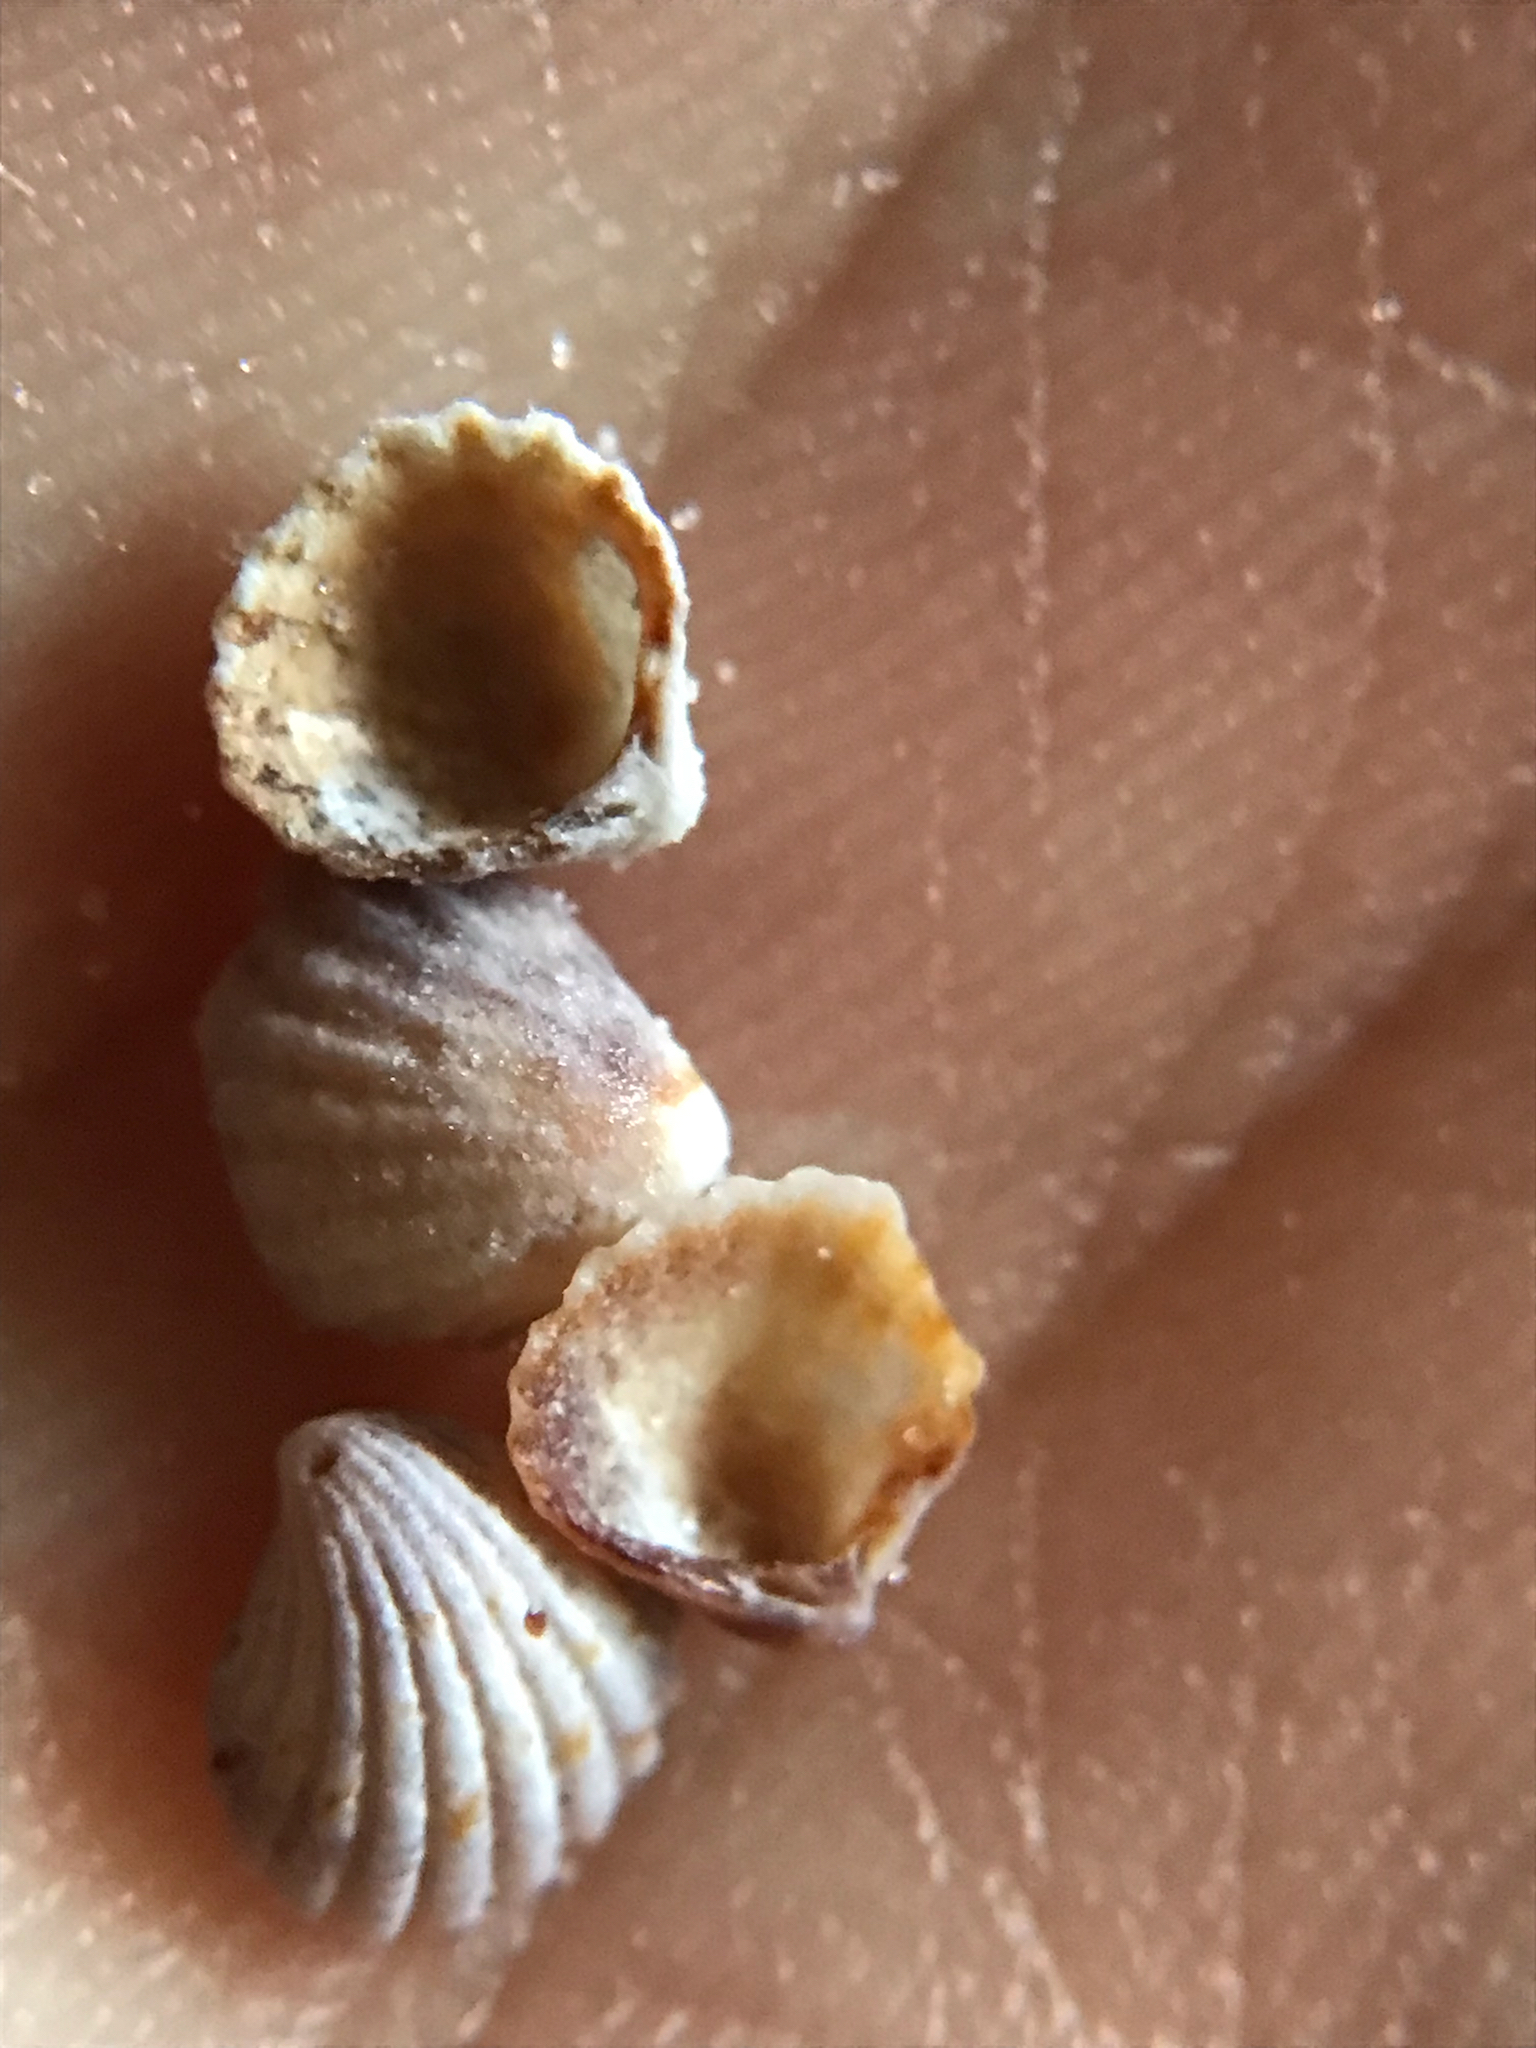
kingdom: Animalia
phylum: Mollusca
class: Bivalvia
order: Carditida
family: Carditidae
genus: Pleuromeris
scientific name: Pleuromeris tridentata
